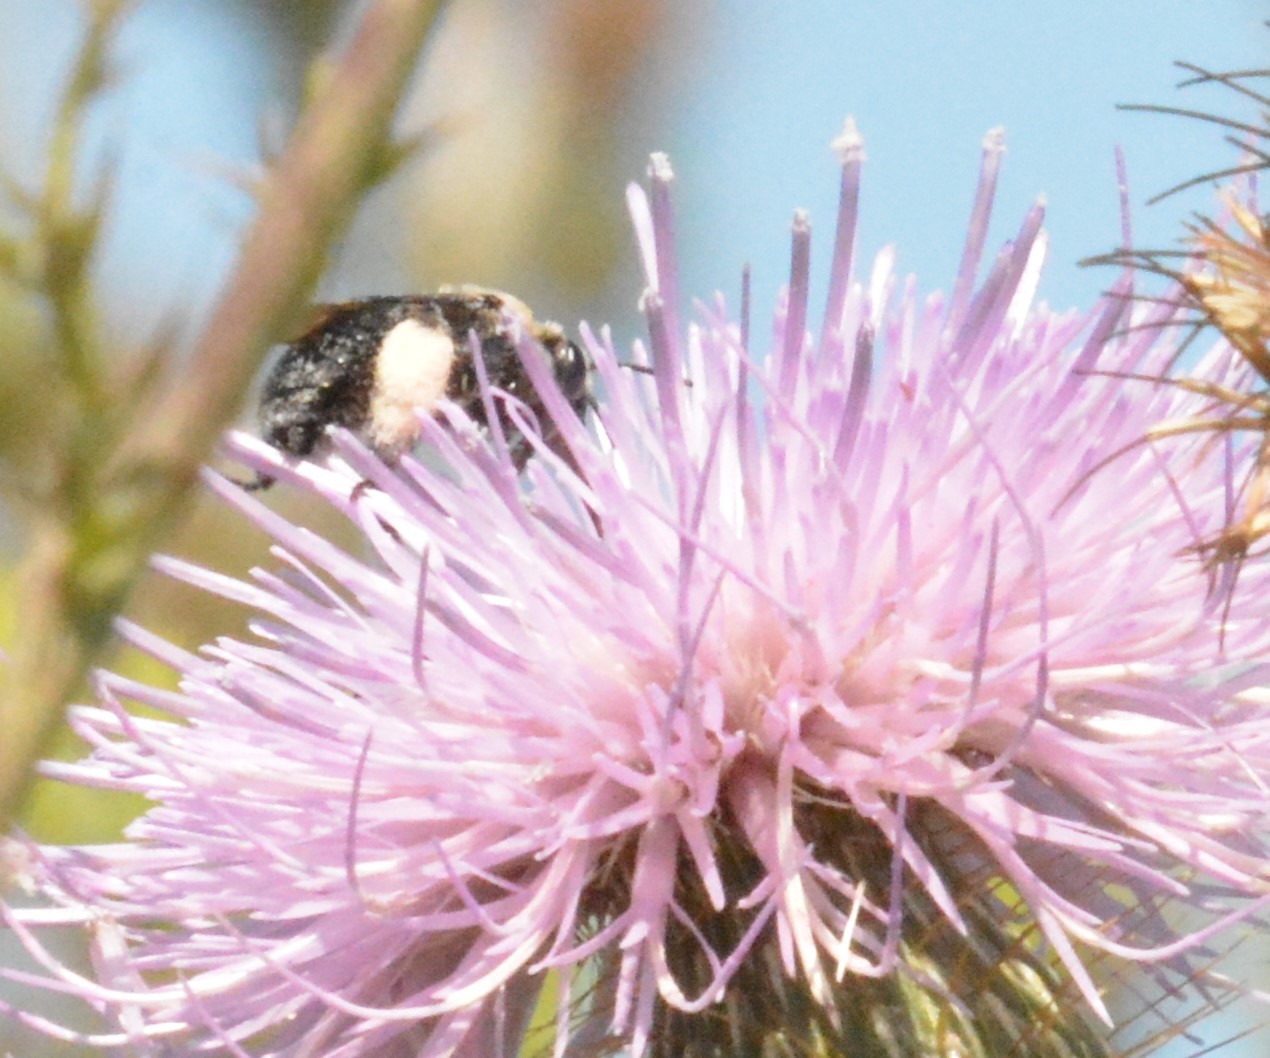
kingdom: Animalia
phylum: Arthropoda
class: Insecta
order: Hymenoptera
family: Apidae
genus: Melissodes
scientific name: Melissodes desponsus
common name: Thistle long-horned bee
